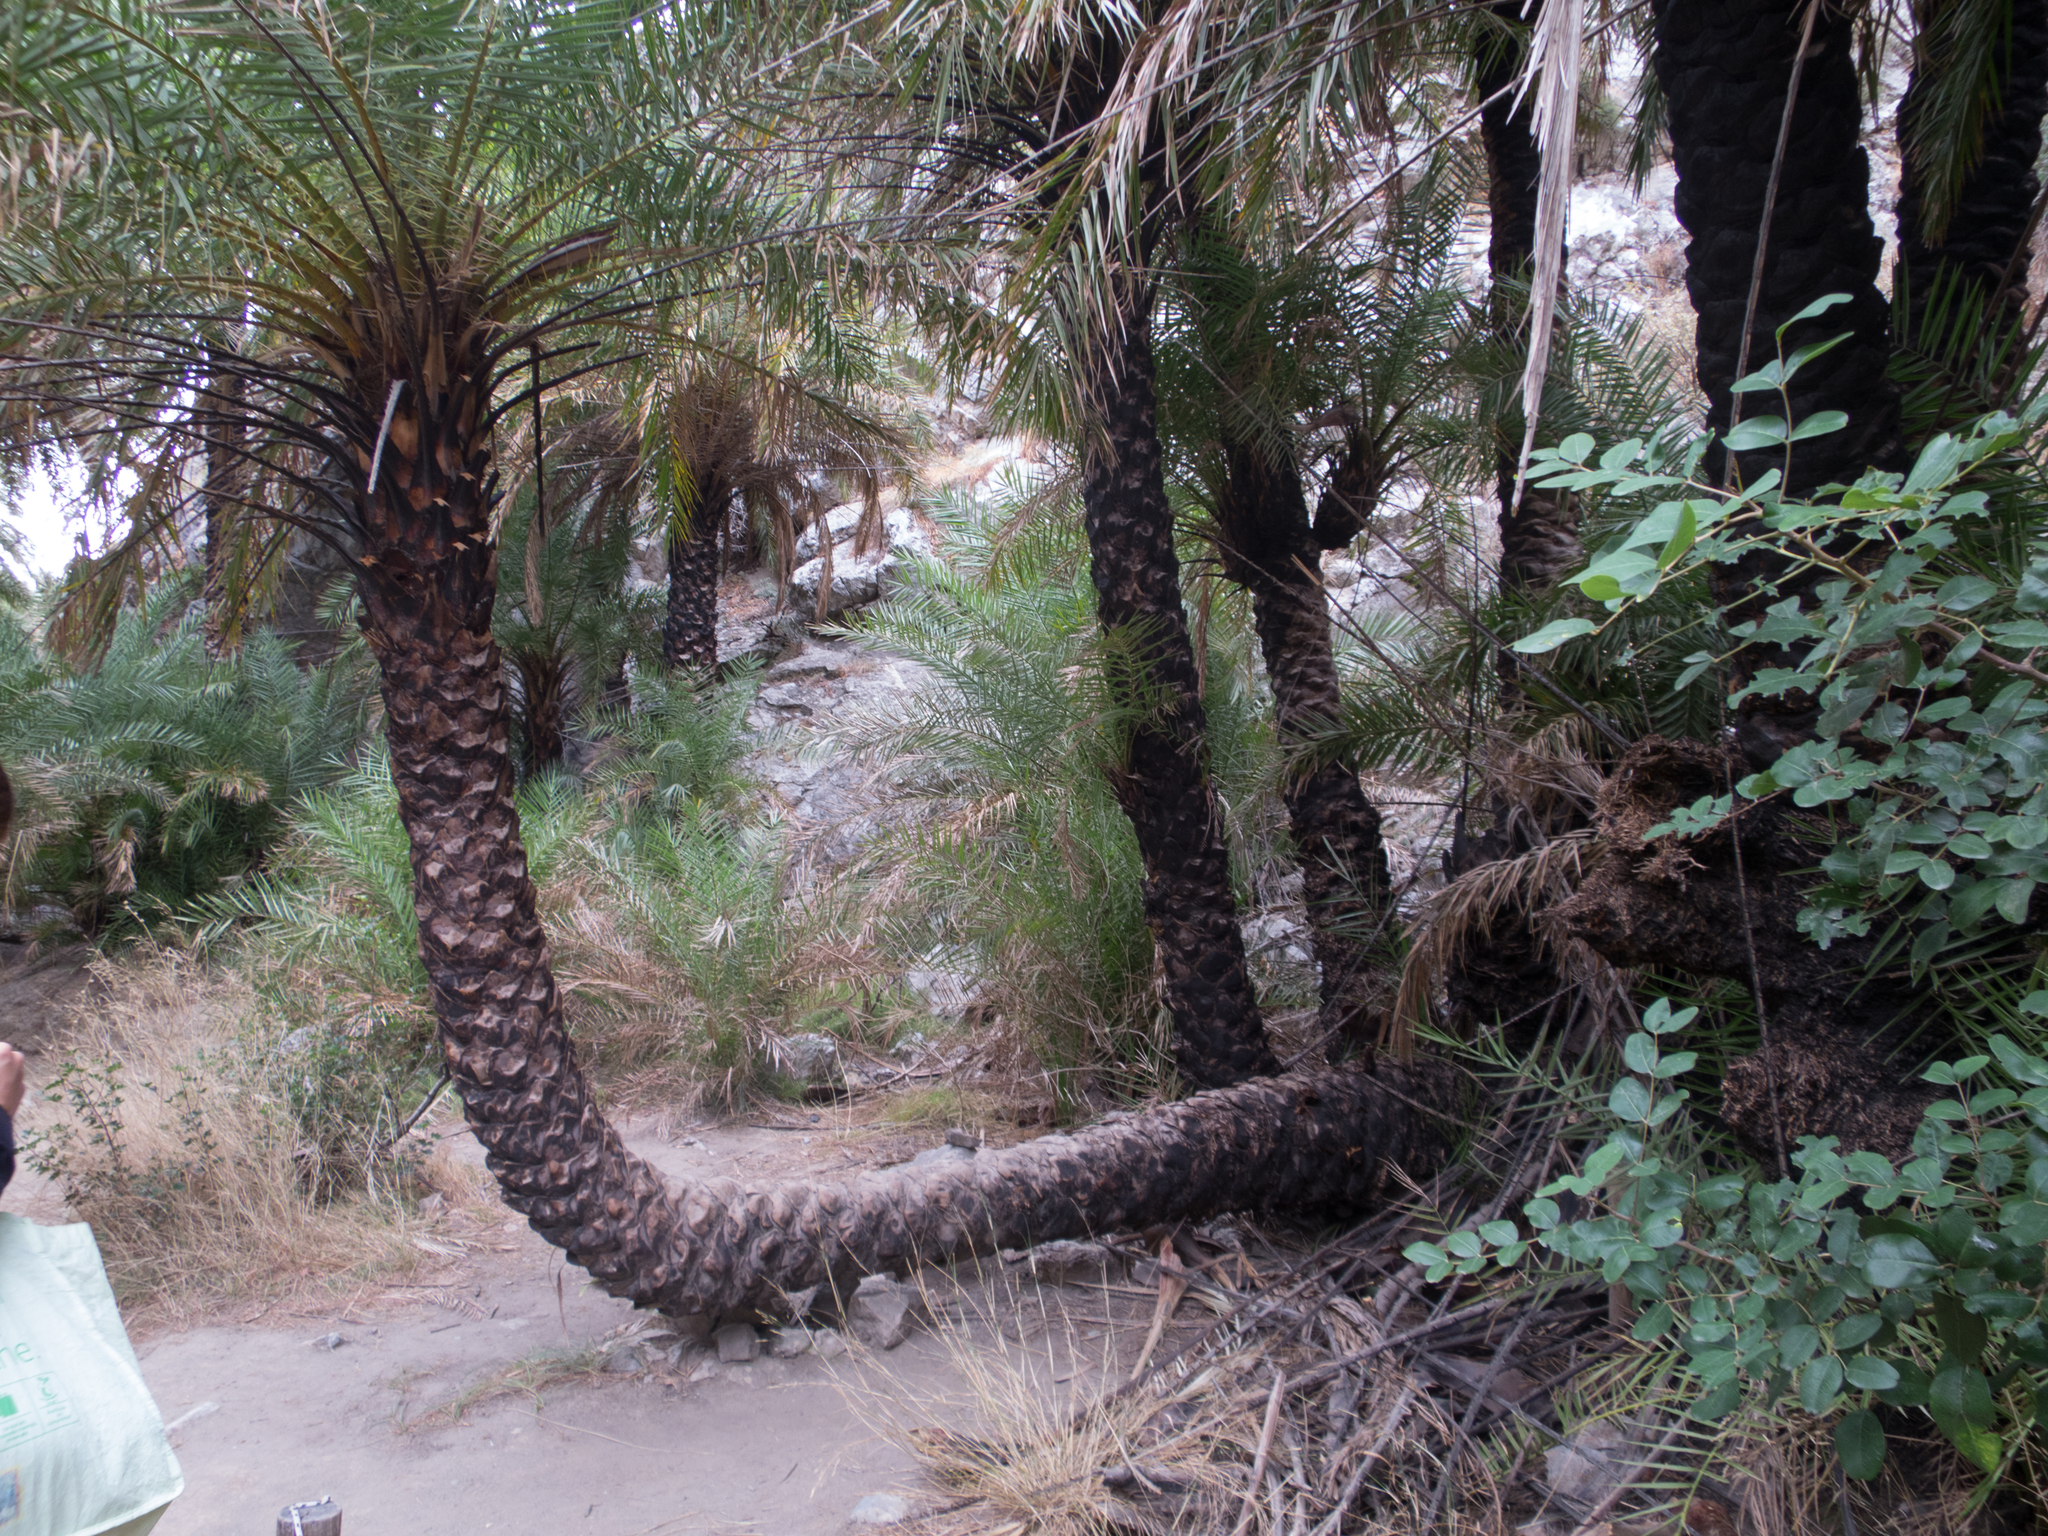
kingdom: Plantae
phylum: Tracheophyta
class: Liliopsida
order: Arecales
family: Arecaceae
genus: Phoenix
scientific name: Phoenix theophrasti
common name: Cretan date palm
